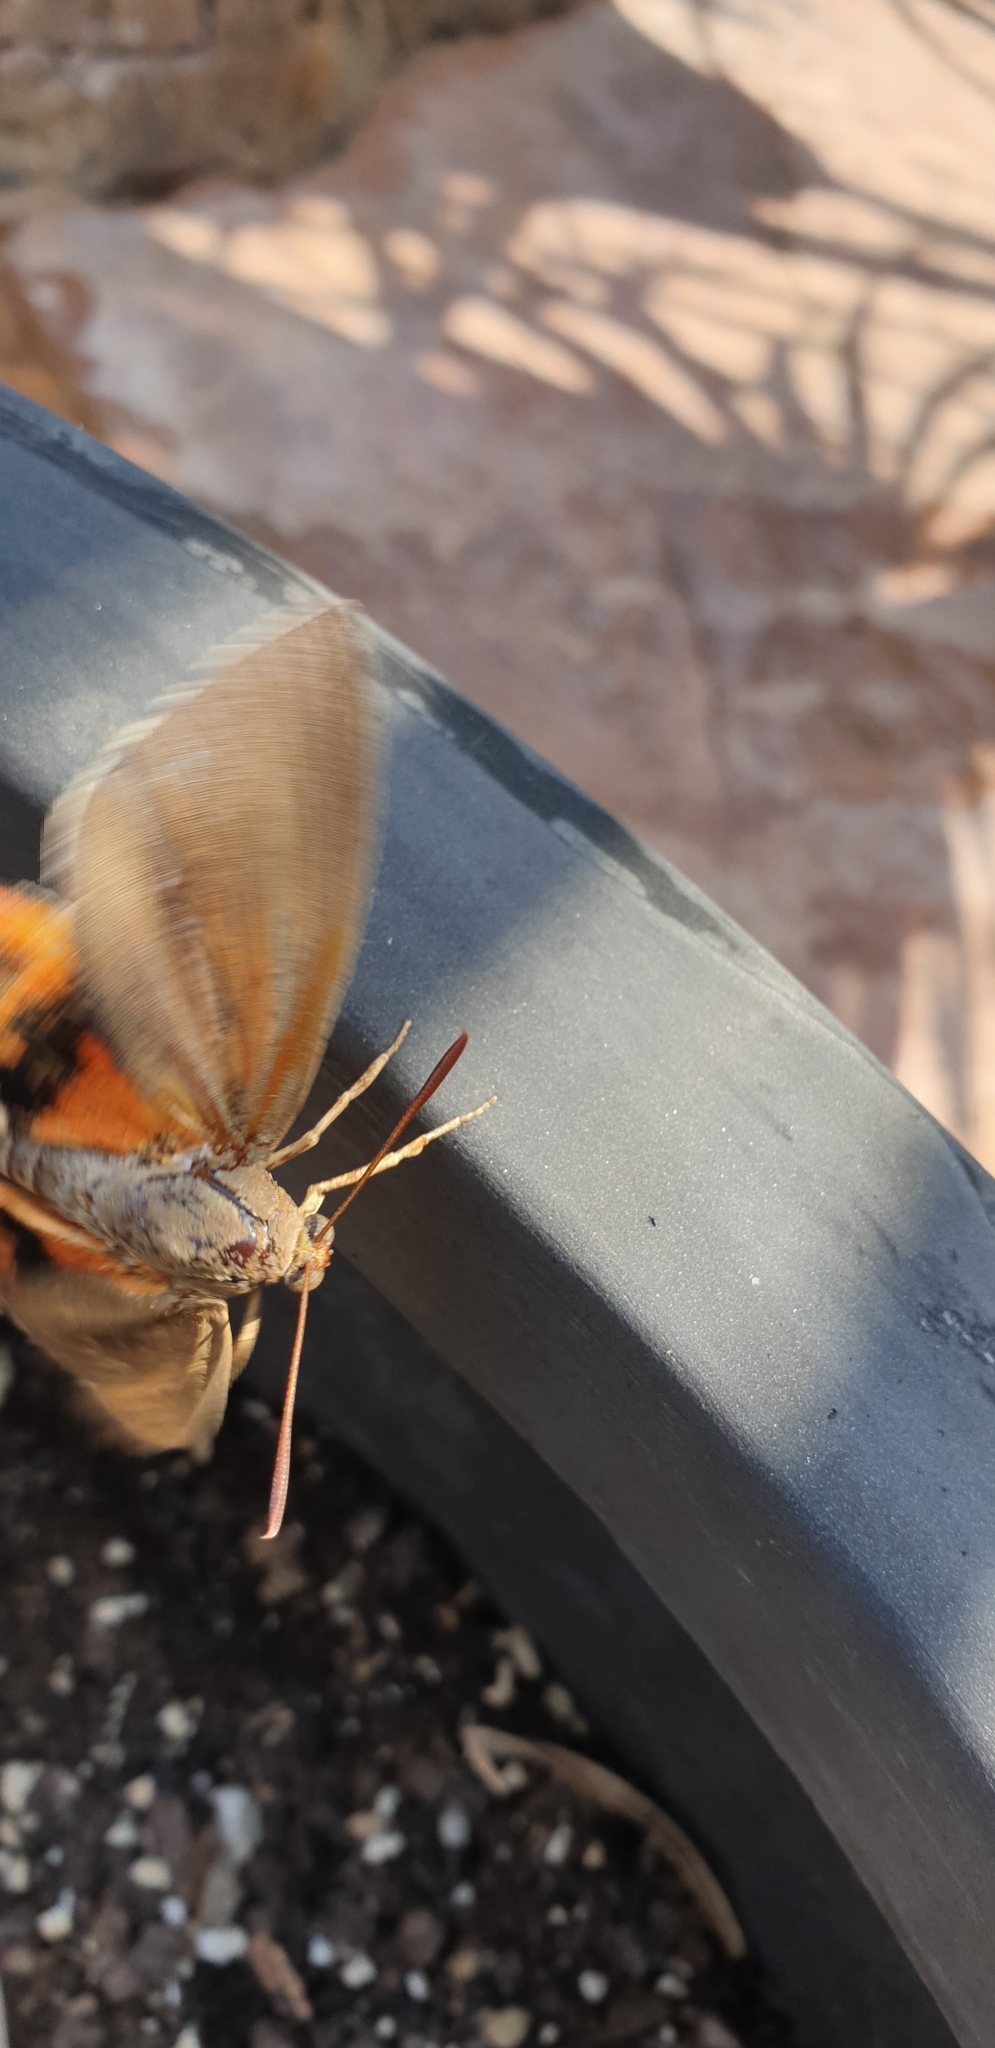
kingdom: Animalia
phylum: Arthropoda
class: Insecta
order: Lepidoptera
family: Castniidae
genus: Paysandisia
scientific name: Paysandisia archon
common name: Palm moth
